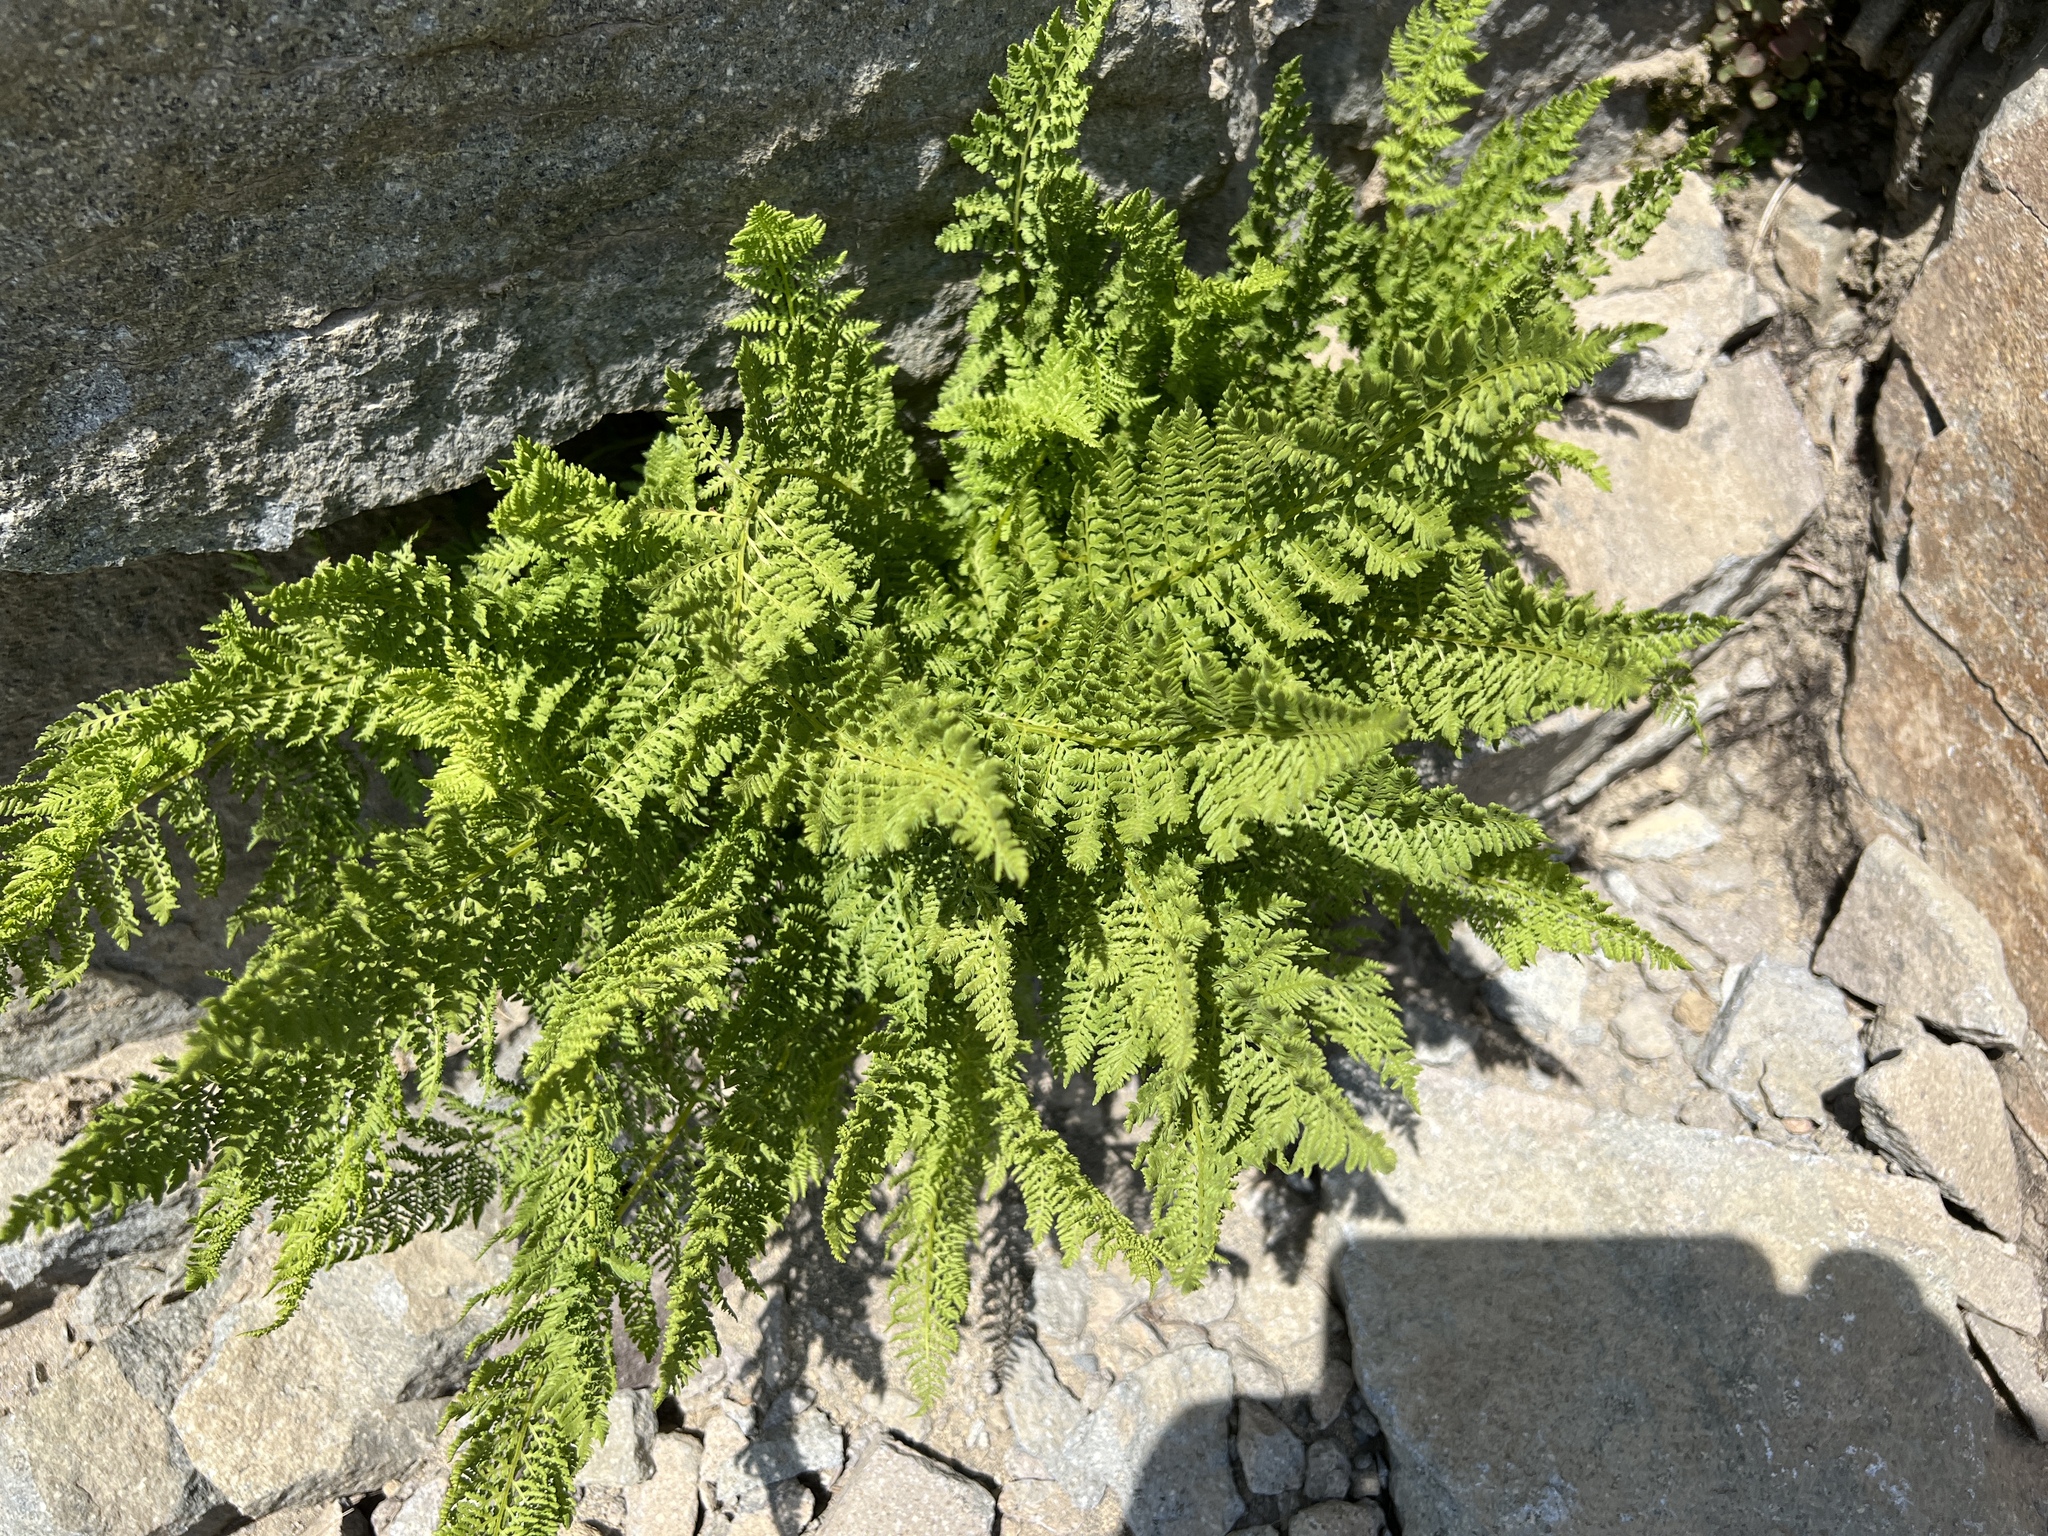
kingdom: Plantae
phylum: Tracheophyta
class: Polypodiopsida
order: Polypodiales
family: Athyriaceae
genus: Athyrium
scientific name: Athyrium americanum
